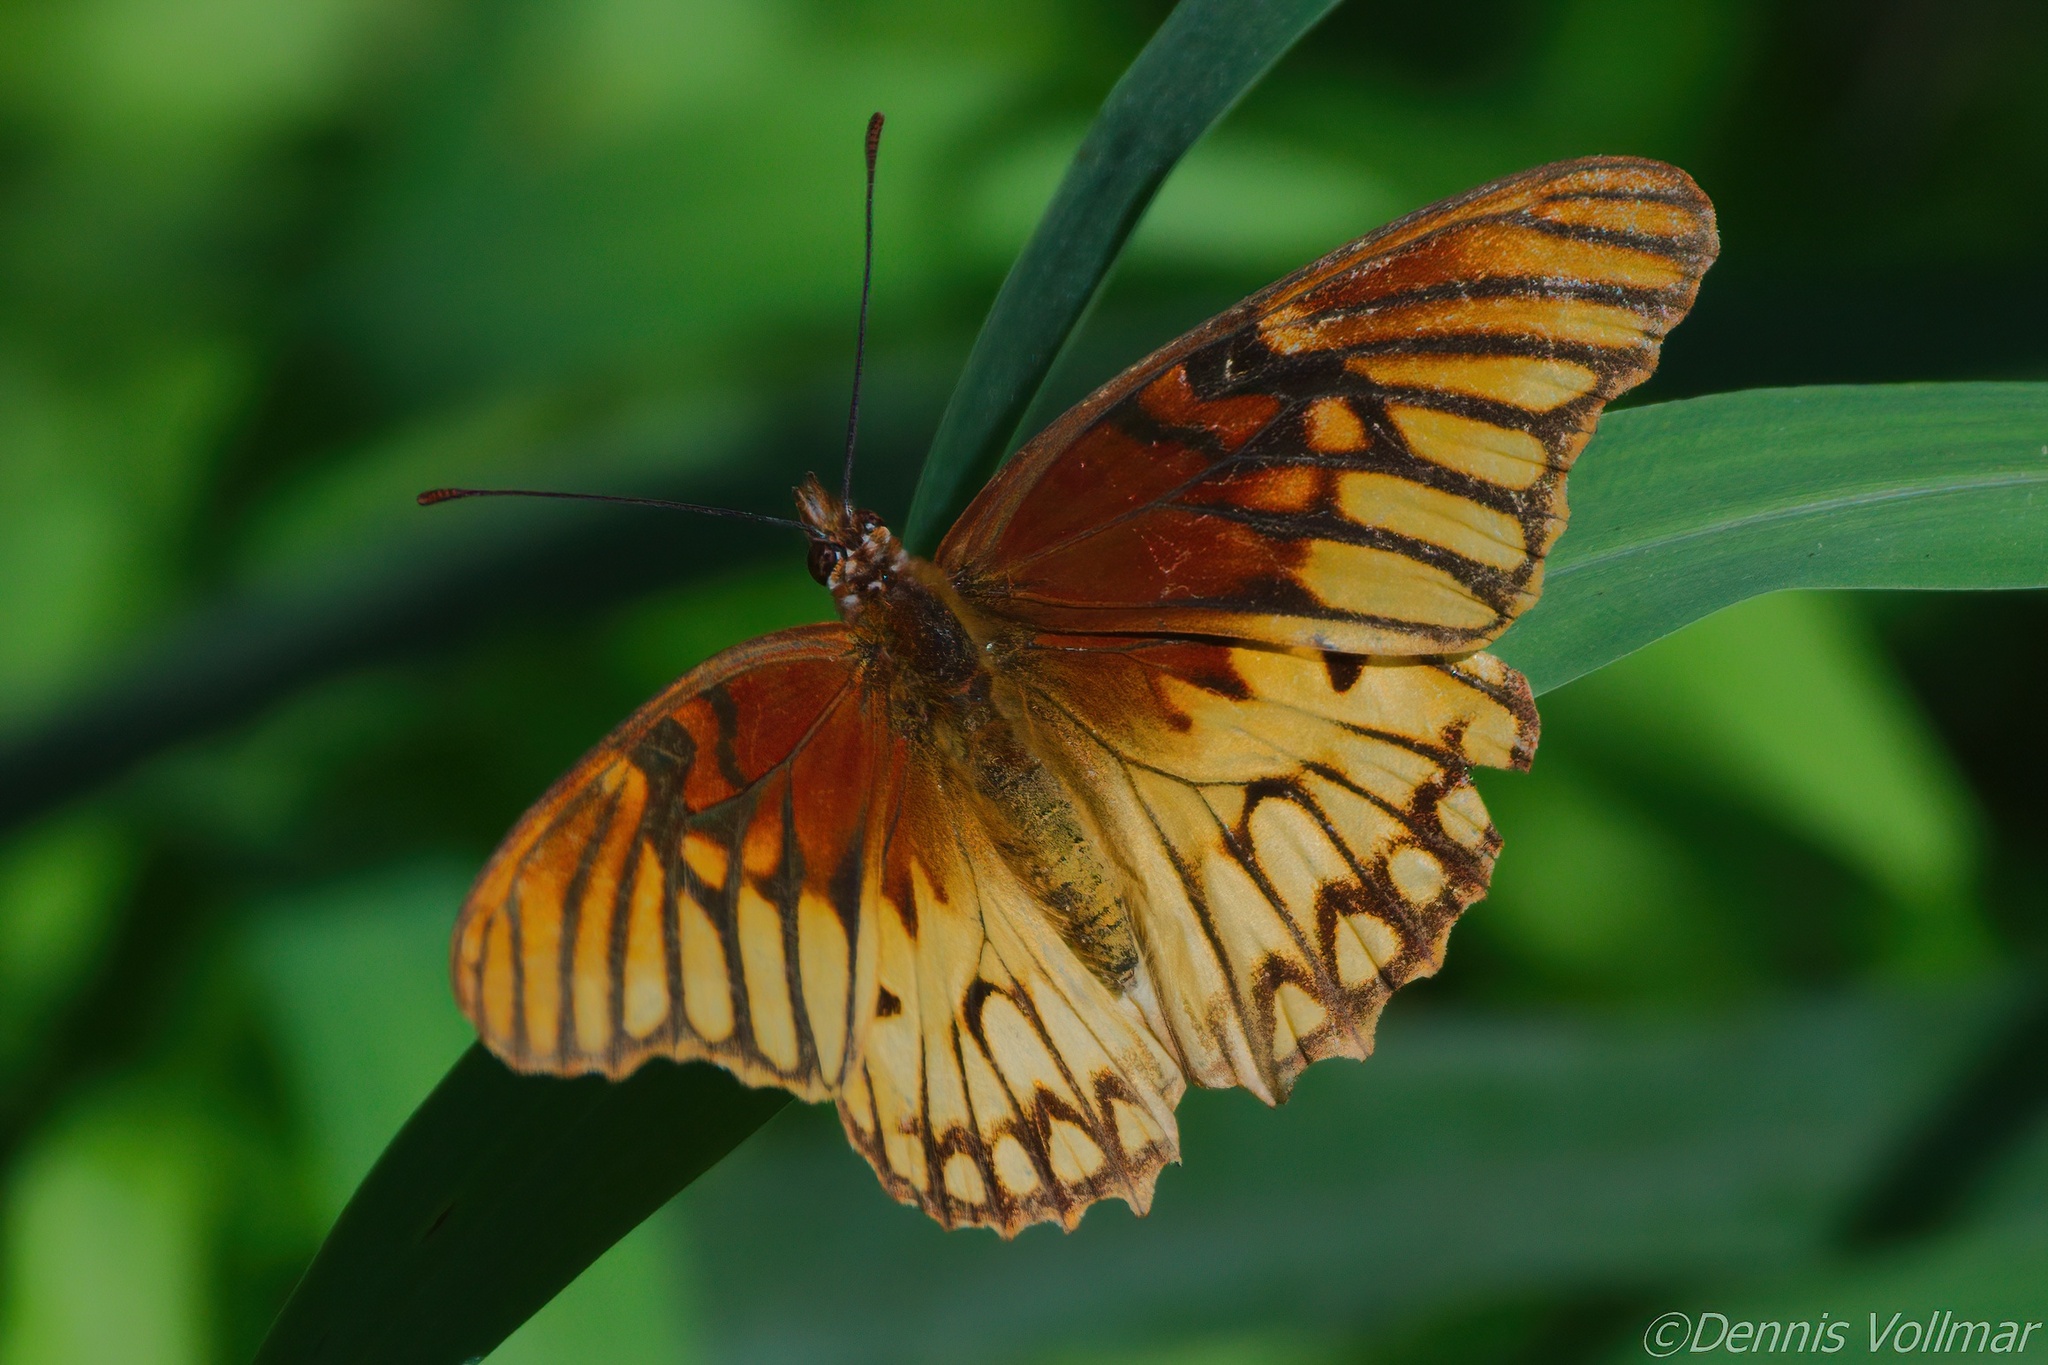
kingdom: Animalia
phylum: Arthropoda
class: Insecta
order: Lepidoptera
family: Nymphalidae
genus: Dione
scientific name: Dione moneta
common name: Mexican silverspot
